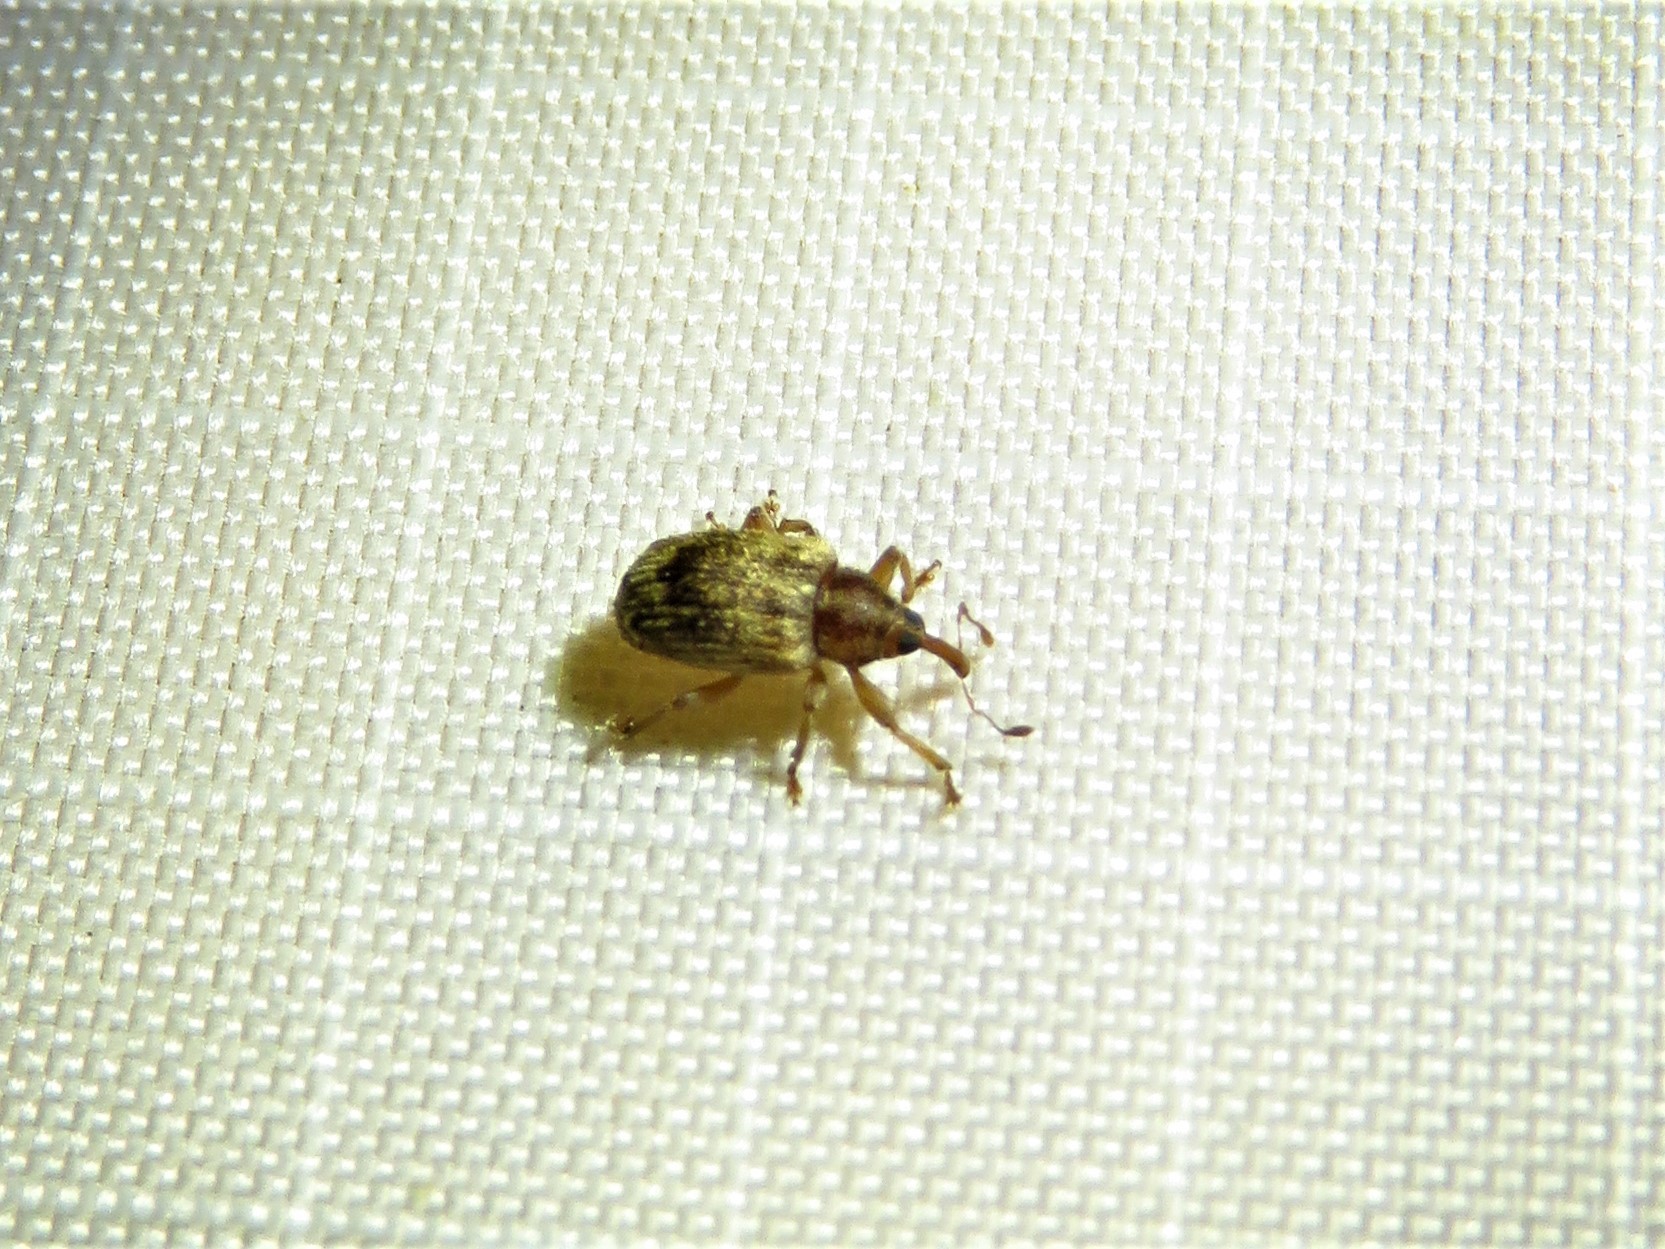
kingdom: Animalia
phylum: Arthropoda
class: Insecta
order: Coleoptera
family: Curculionidae
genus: Lignyodes
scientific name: Lignyodes horridulus
